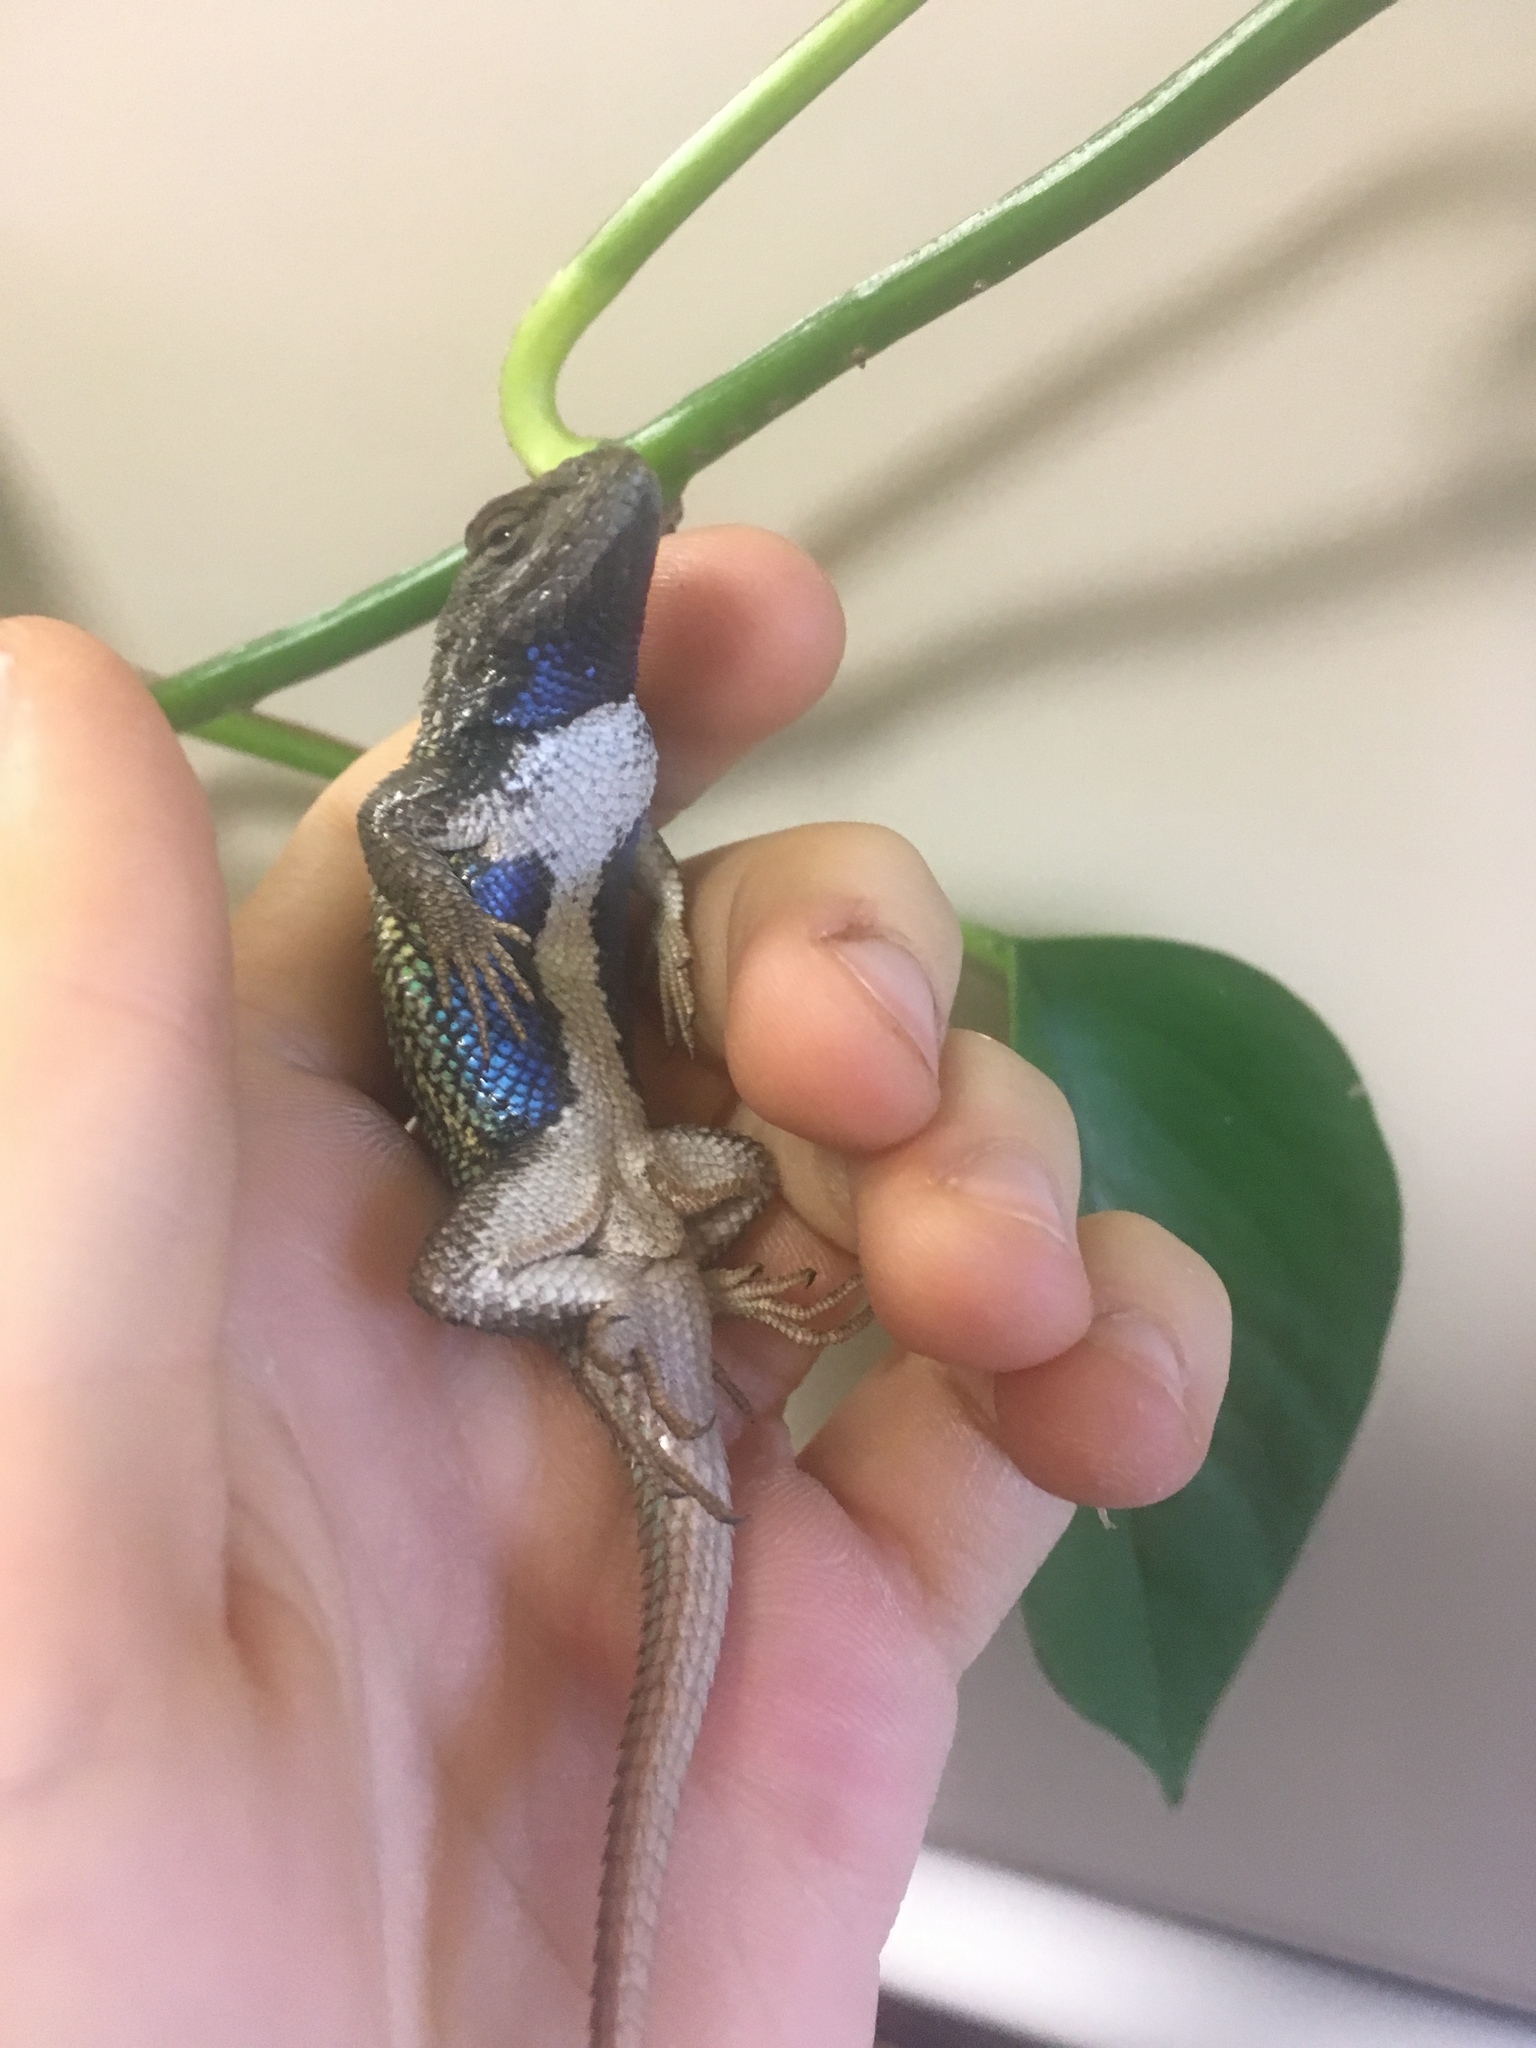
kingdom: Animalia
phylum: Chordata
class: Squamata
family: Phrynosomatidae
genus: Sceloporus
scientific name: Sceloporus tristichus
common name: Plateau fence lizard
